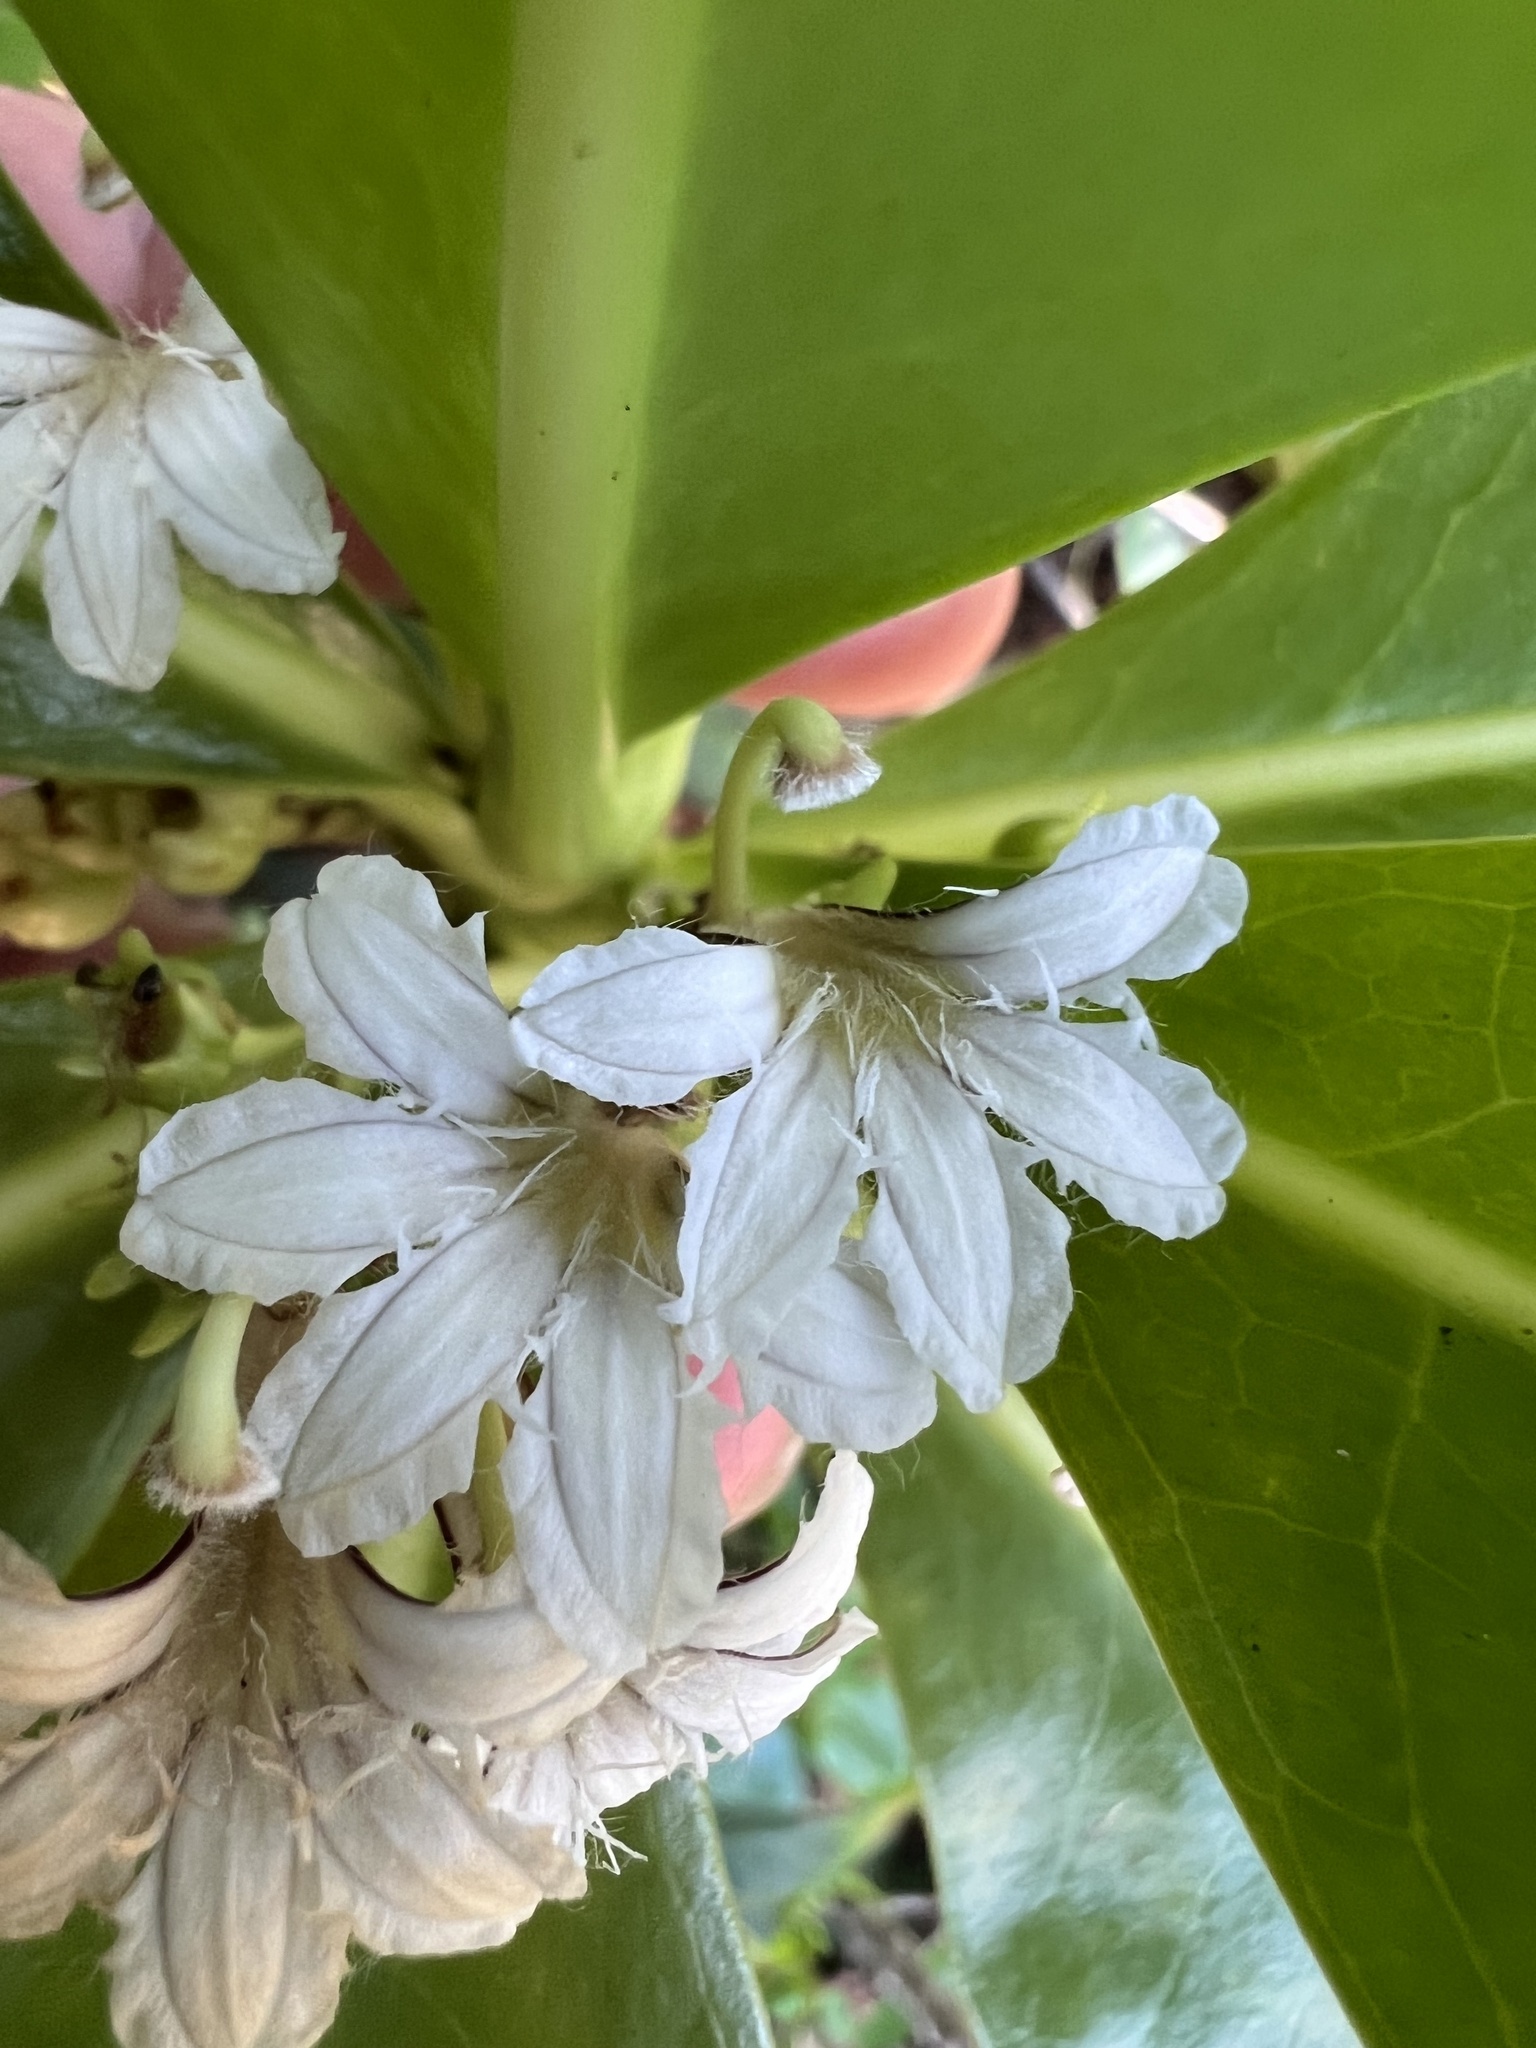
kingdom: Plantae
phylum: Tracheophyta
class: Magnoliopsida
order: Asterales
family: Goodeniaceae
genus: Scaevola
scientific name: Scaevola taccada
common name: Sea lettucetree
